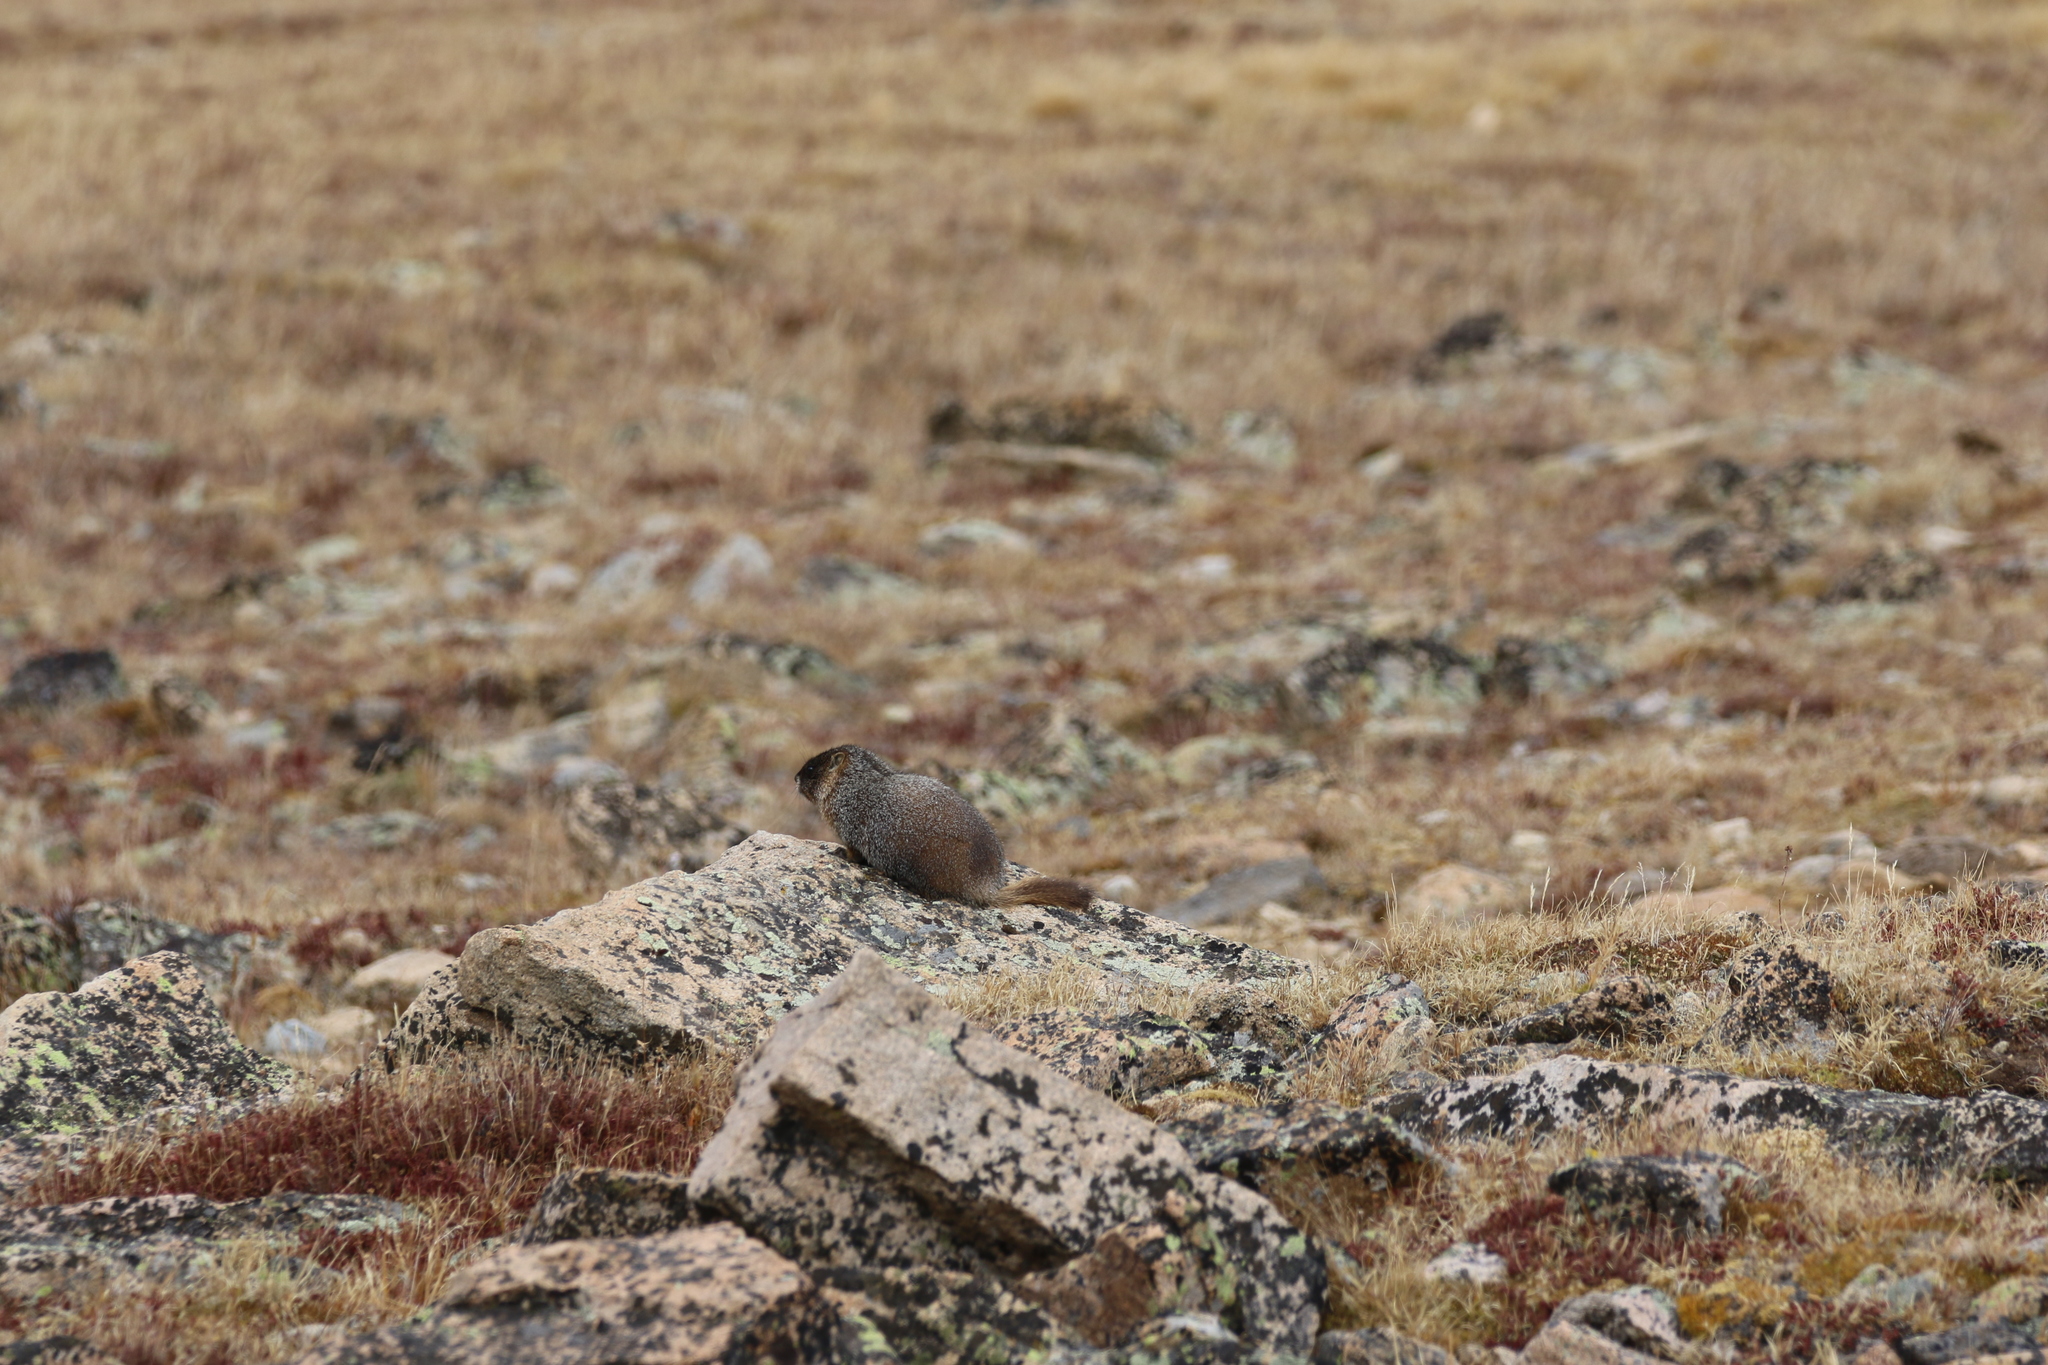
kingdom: Animalia
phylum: Chordata
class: Mammalia
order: Rodentia
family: Sciuridae
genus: Marmota
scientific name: Marmota flaviventris
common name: Yellow-bellied marmot
